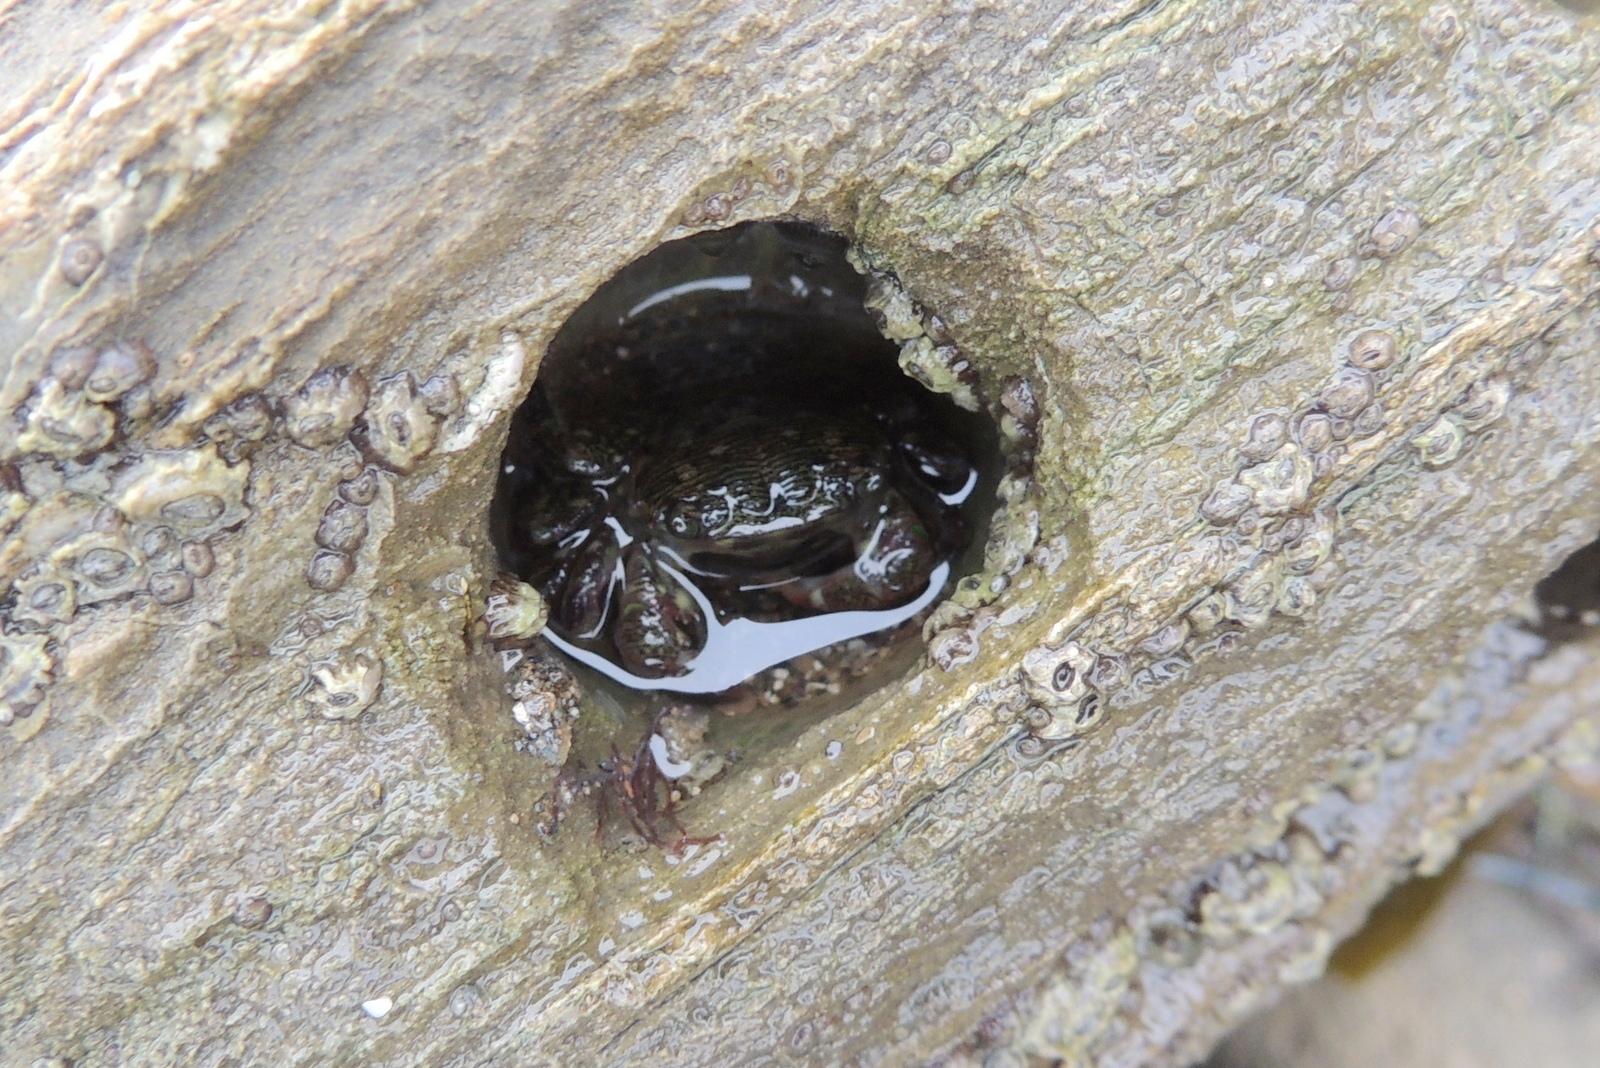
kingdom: Animalia
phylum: Arthropoda
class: Malacostraca
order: Decapoda
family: Grapsidae
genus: Pachygrapsus
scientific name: Pachygrapsus crassipes
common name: Striped shore crab
